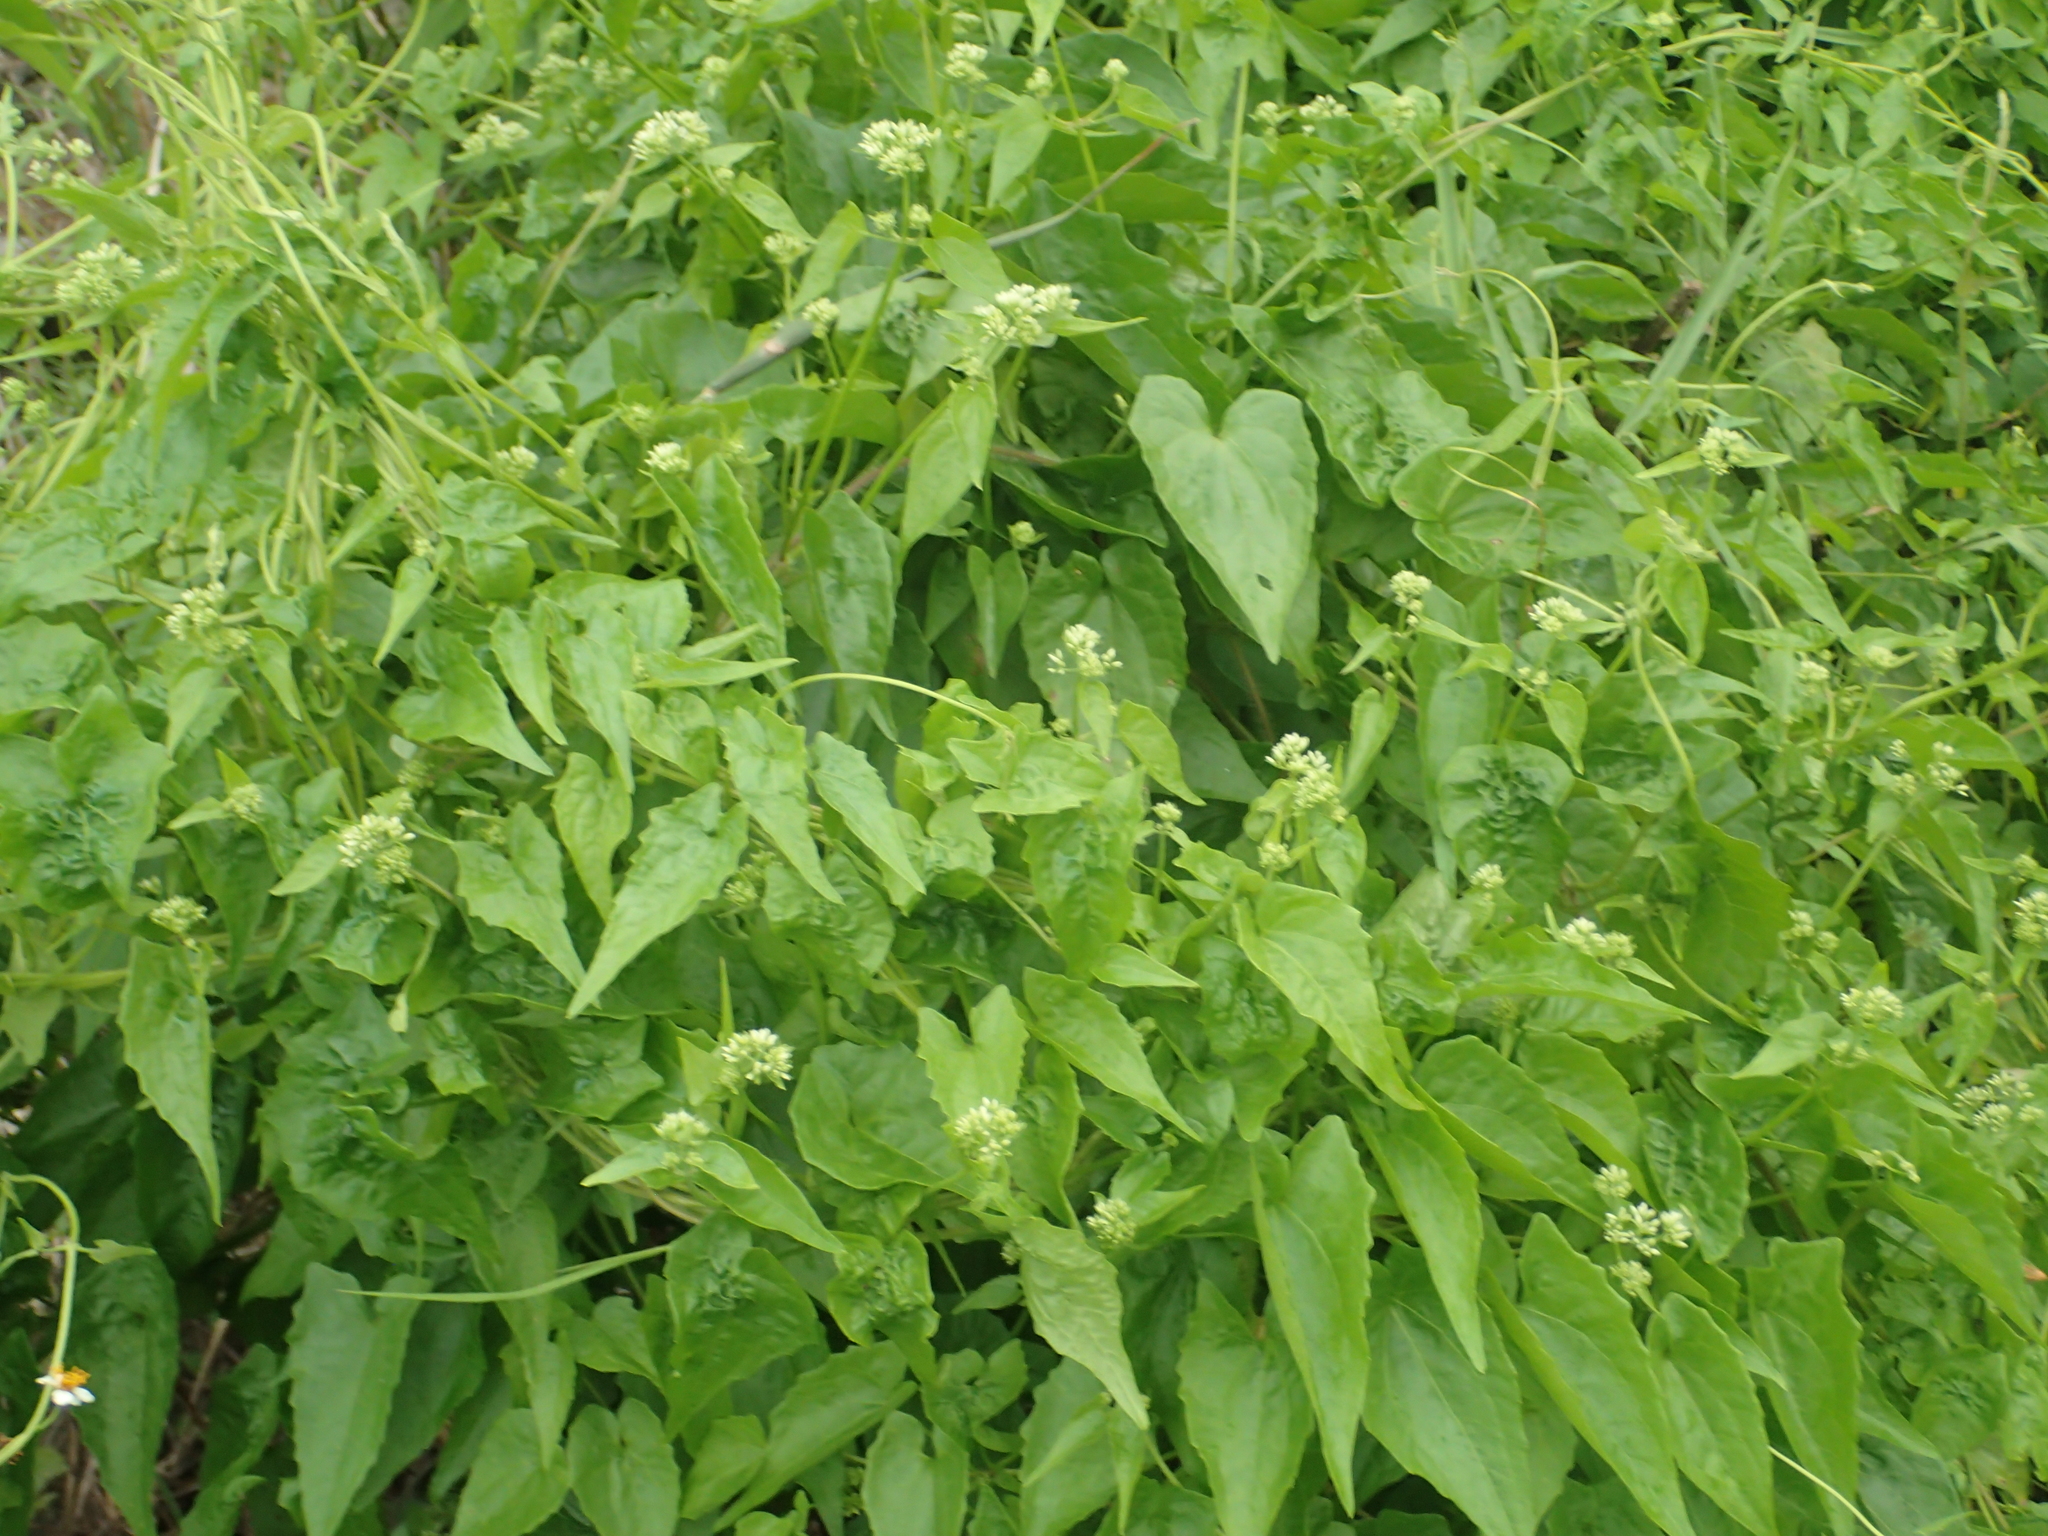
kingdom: Plantae
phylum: Tracheophyta
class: Magnoliopsida
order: Asterales
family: Asteraceae
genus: Mikania
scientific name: Mikania micrantha
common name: Mile-a-minute
